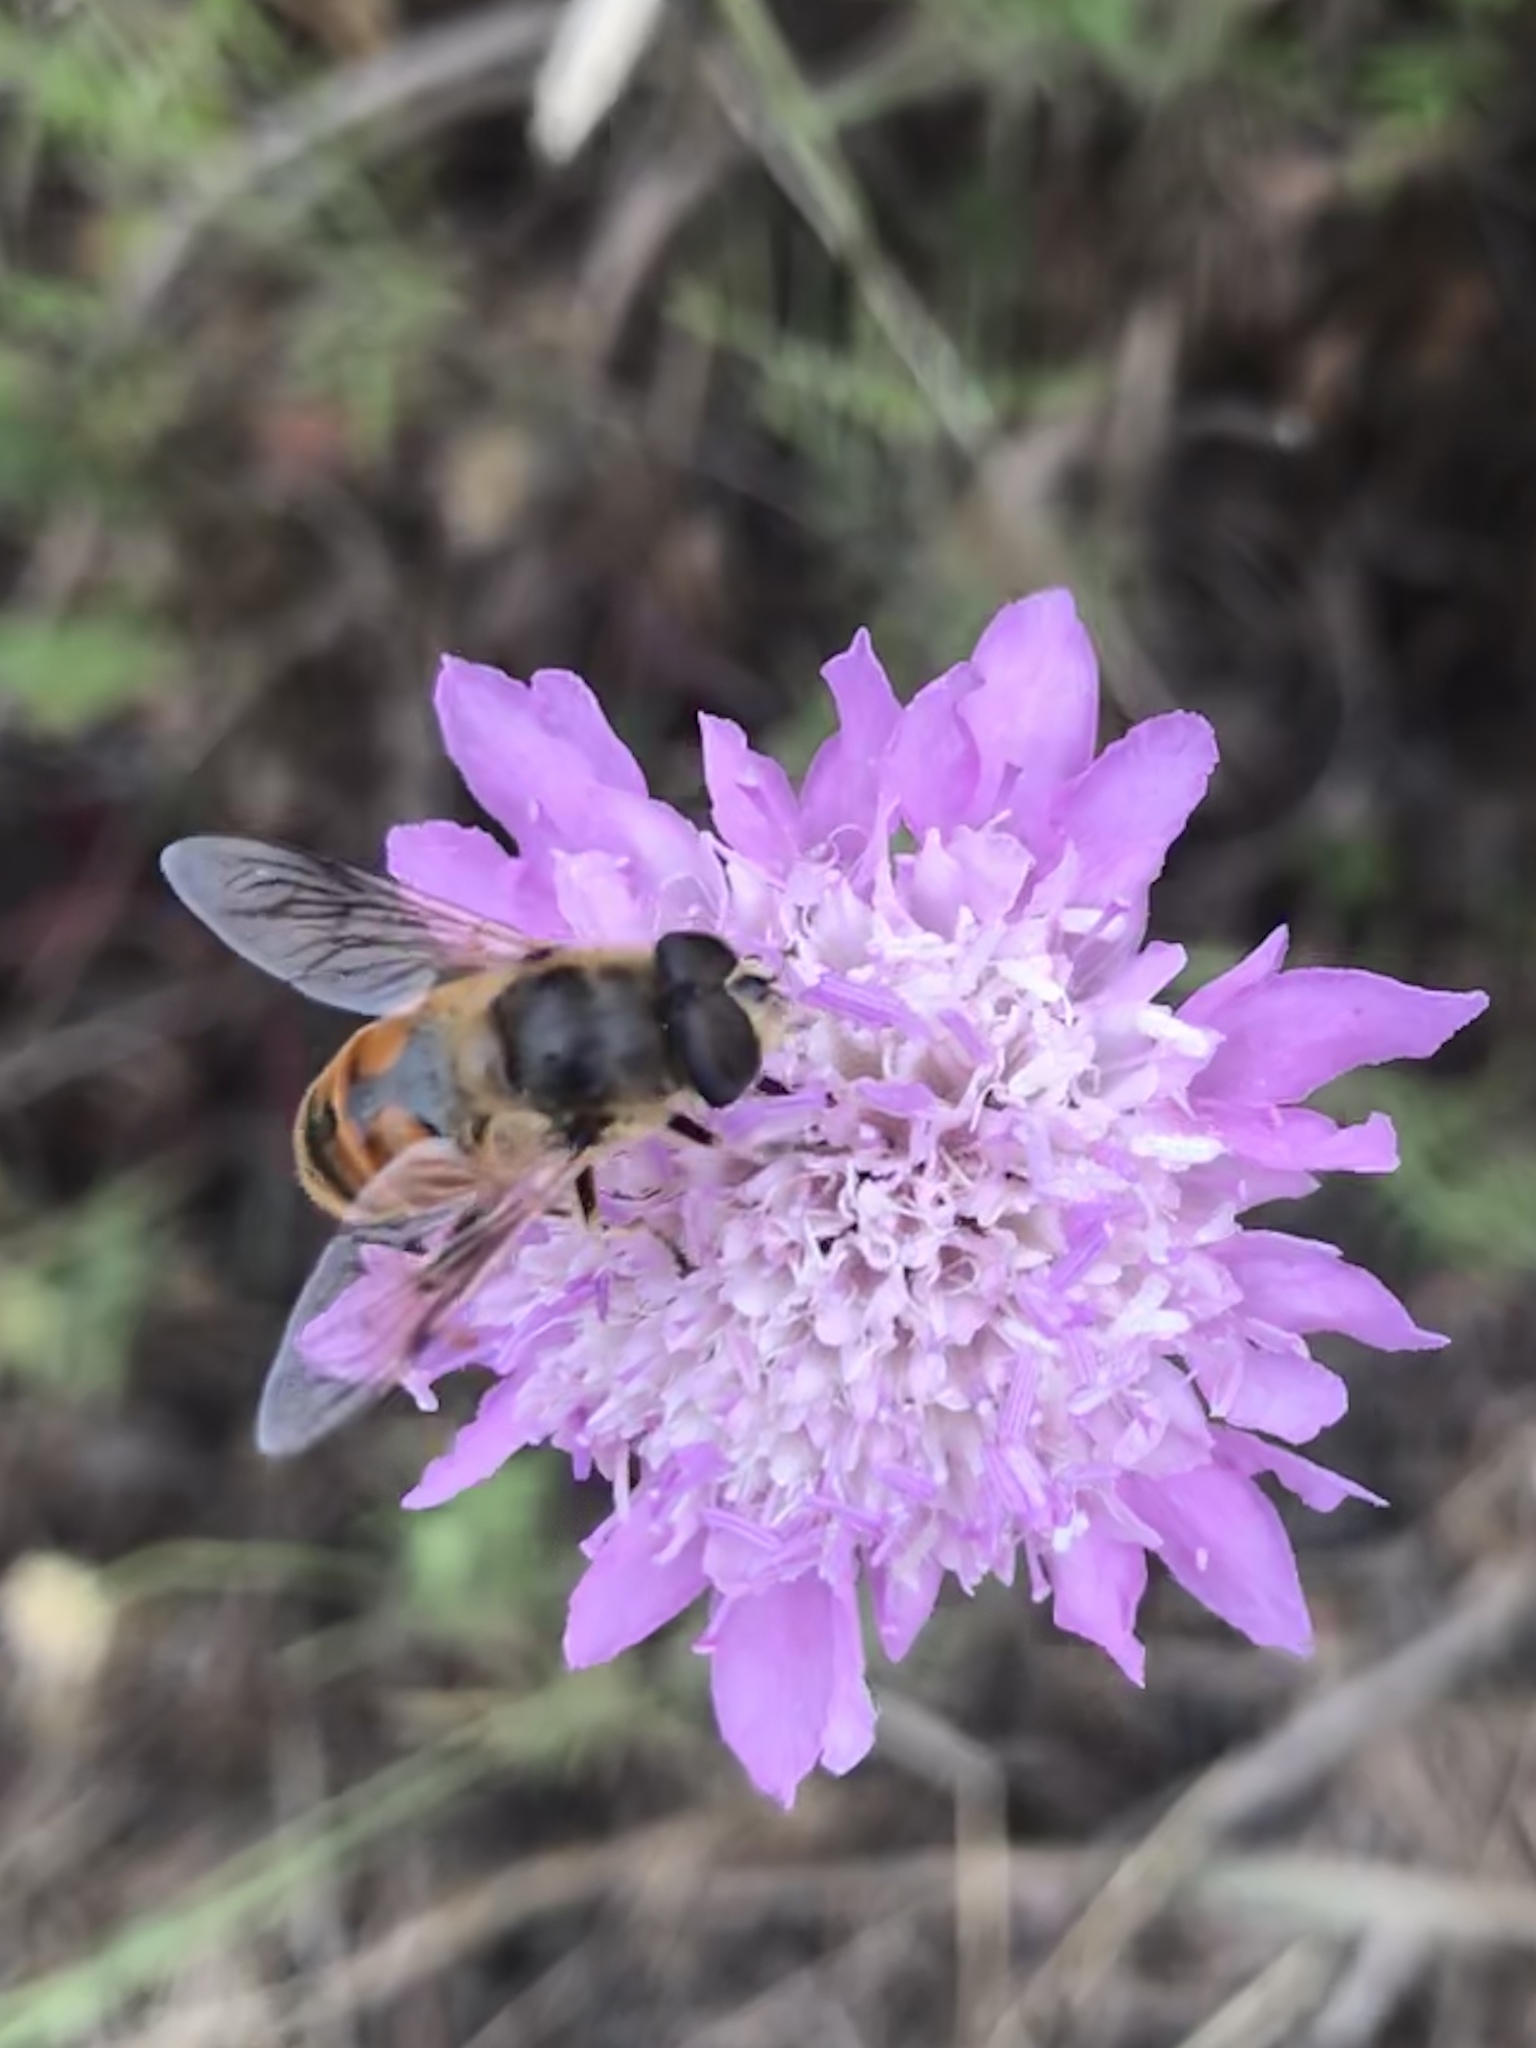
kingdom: Animalia
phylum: Arthropoda
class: Insecta
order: Diptera
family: Syrphidae
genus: Eristalis
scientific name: Eristalis tenax
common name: Drone fly
